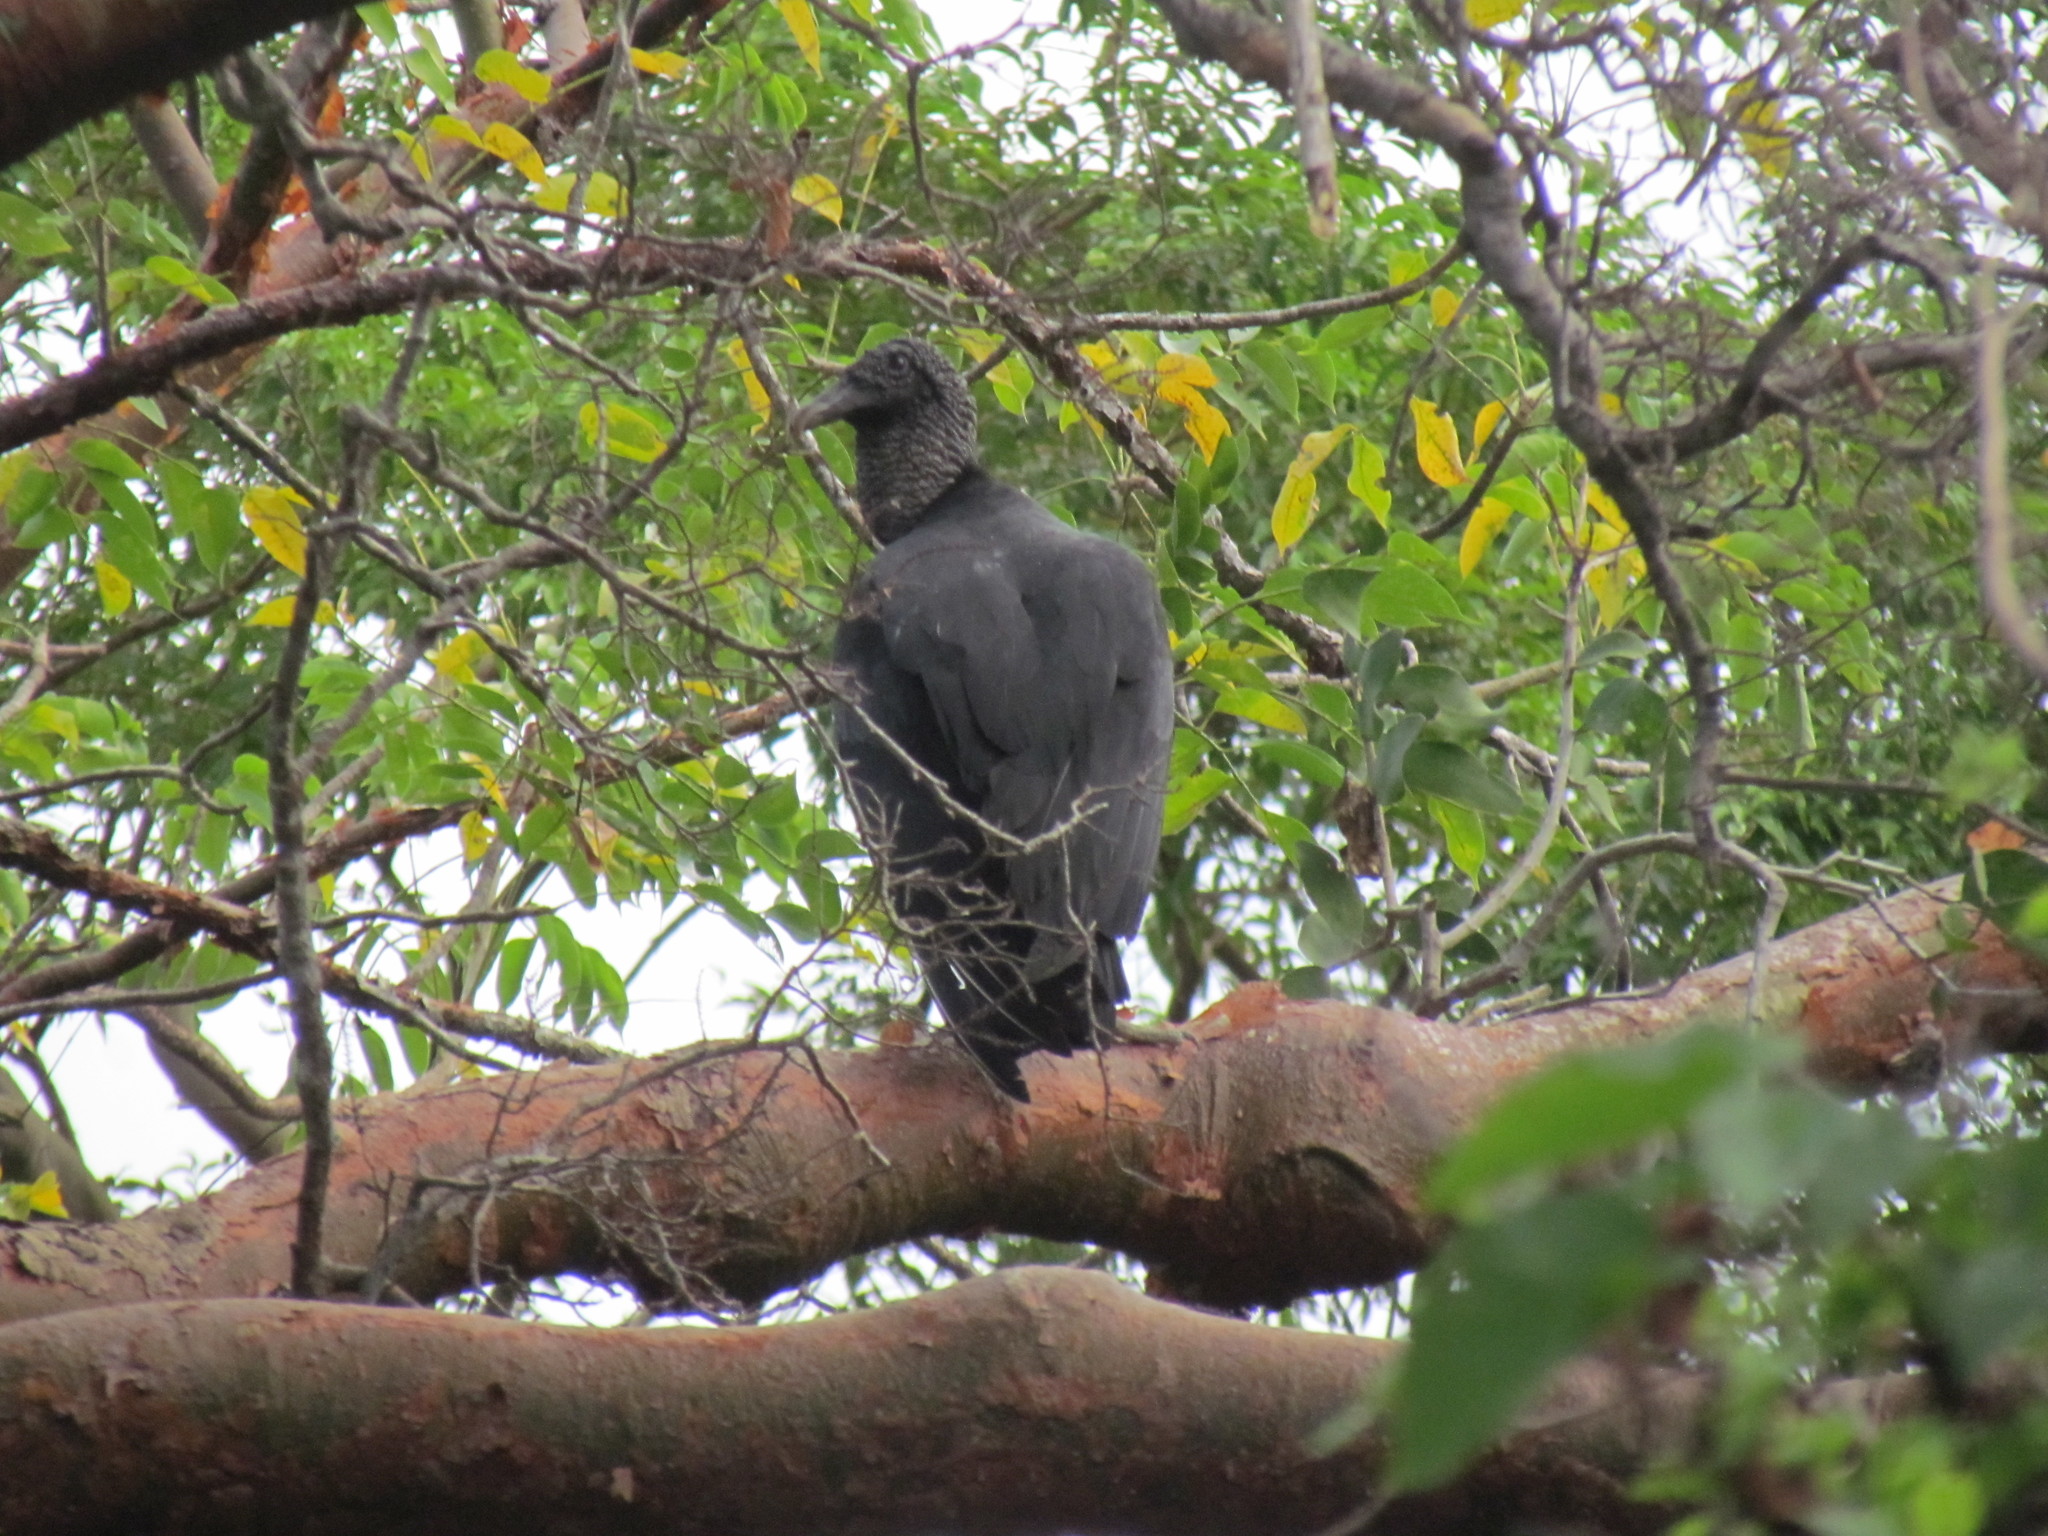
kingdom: Animalia
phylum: Chordata
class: Aves
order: Accipitriformes
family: Cathartidae
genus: Coragyps
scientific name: Coragyps atratus
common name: Black vulture
